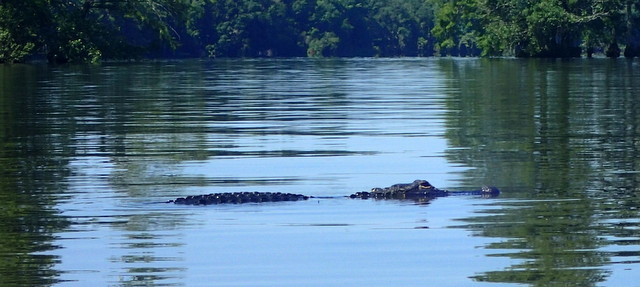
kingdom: Animalia
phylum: Chordata
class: Crocodylia
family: Alligatoridae
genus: Alligator
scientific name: Alligator mississippiensis
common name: American alligator
